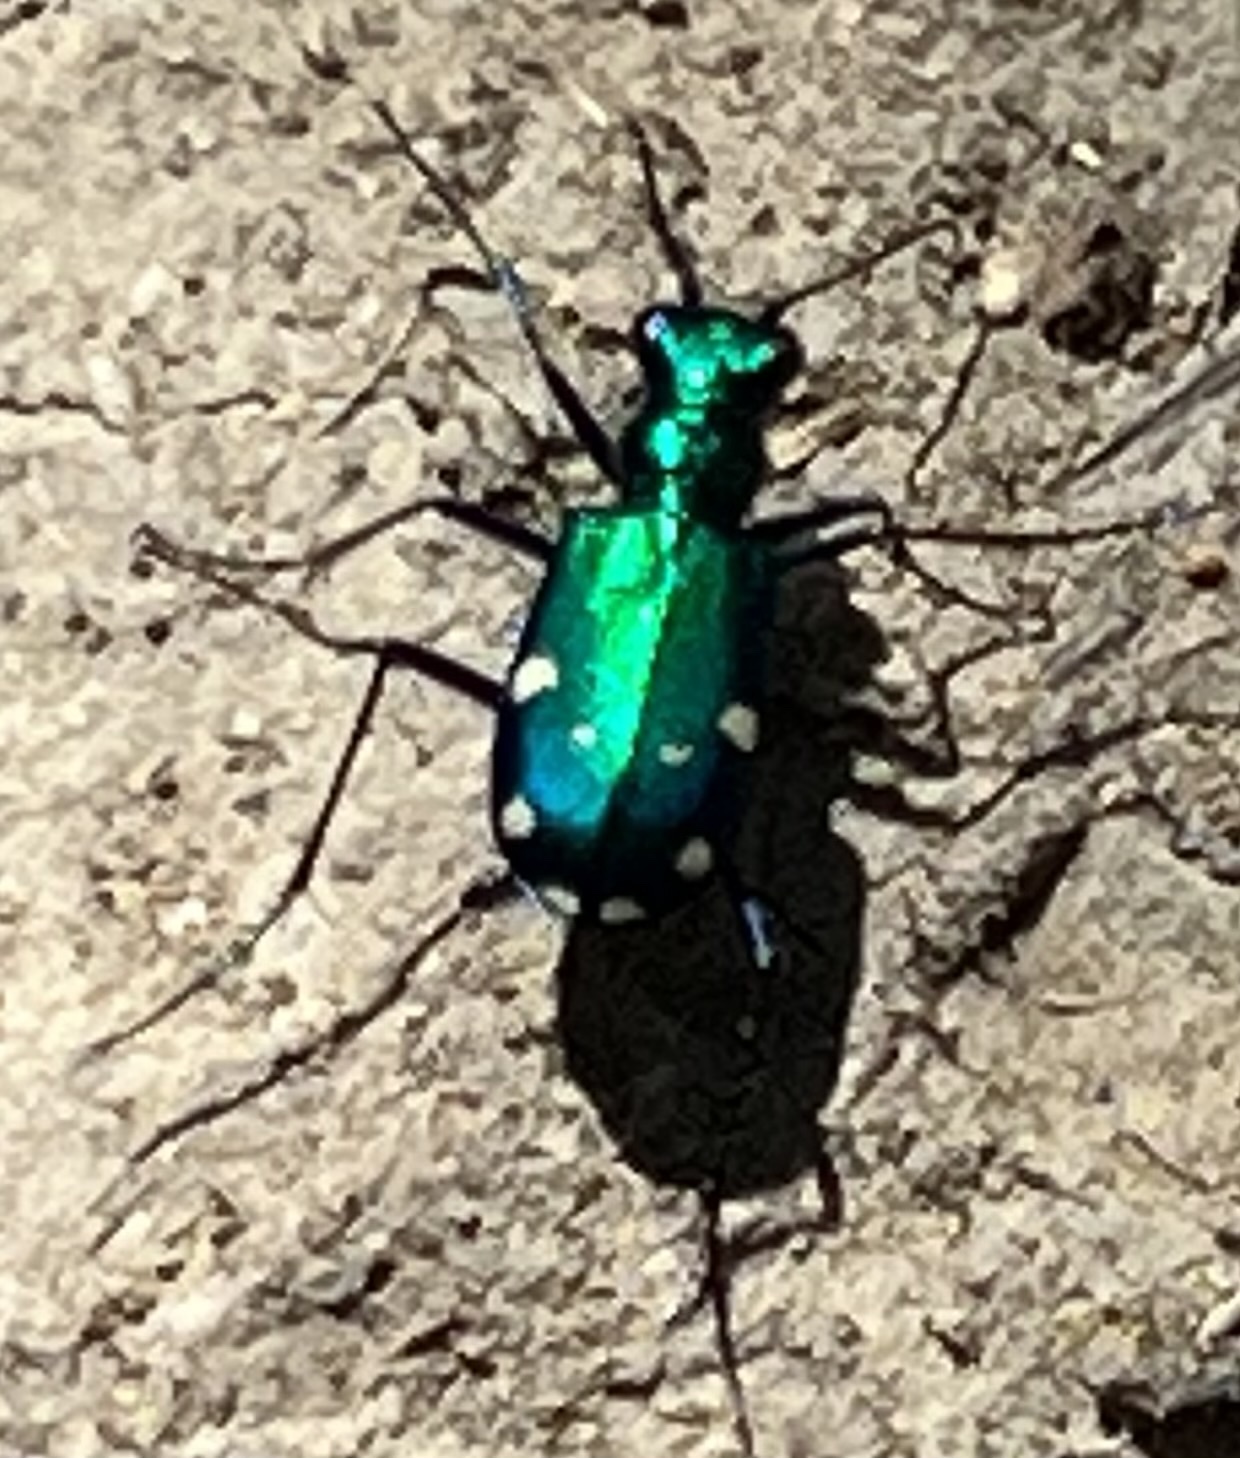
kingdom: Animalia
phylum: Arthropoda
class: Insecta
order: Coleoptera
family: Carabidae
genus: Cicindela
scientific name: Cicindela sexguttata
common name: Six-spotted tiger beetle
